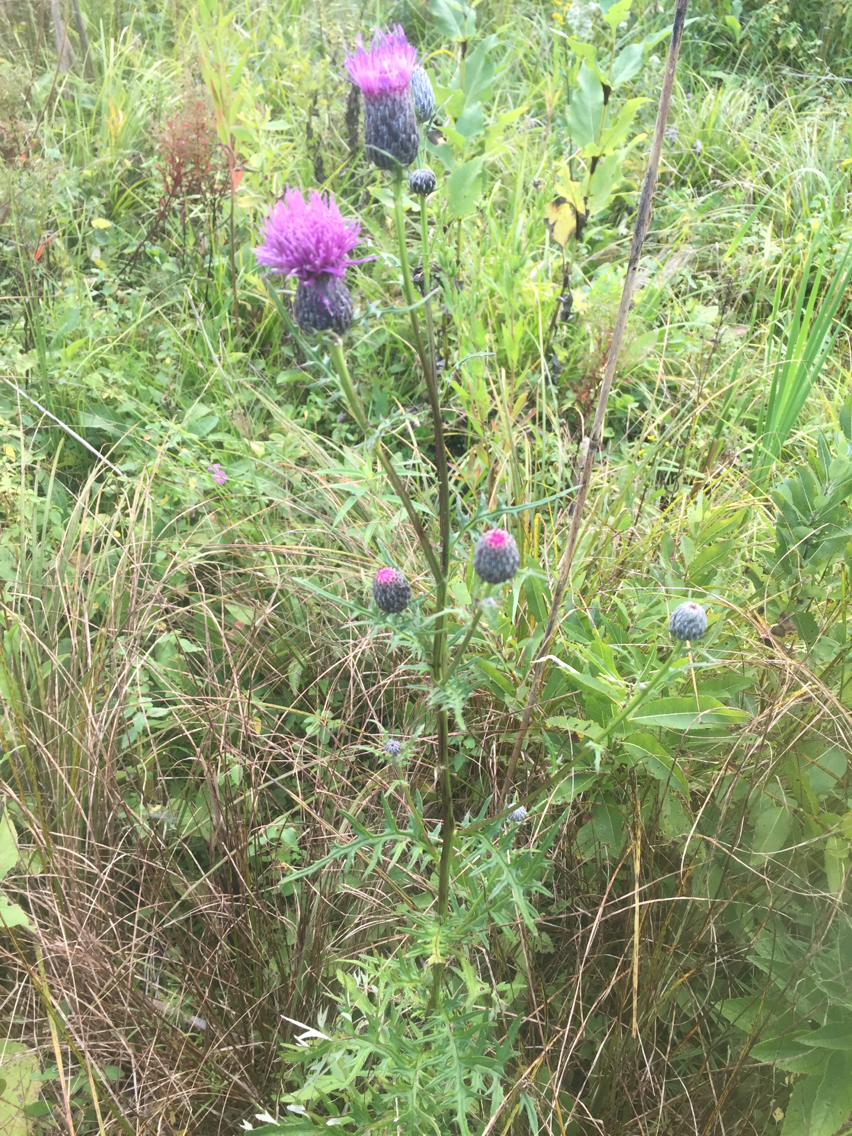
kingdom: Plantae
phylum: Tracheophyta
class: Magnoliopsida
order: Asterales
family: Asteraceae
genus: Cirsium
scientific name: Cirsium muticum
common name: Dunce-nettle
